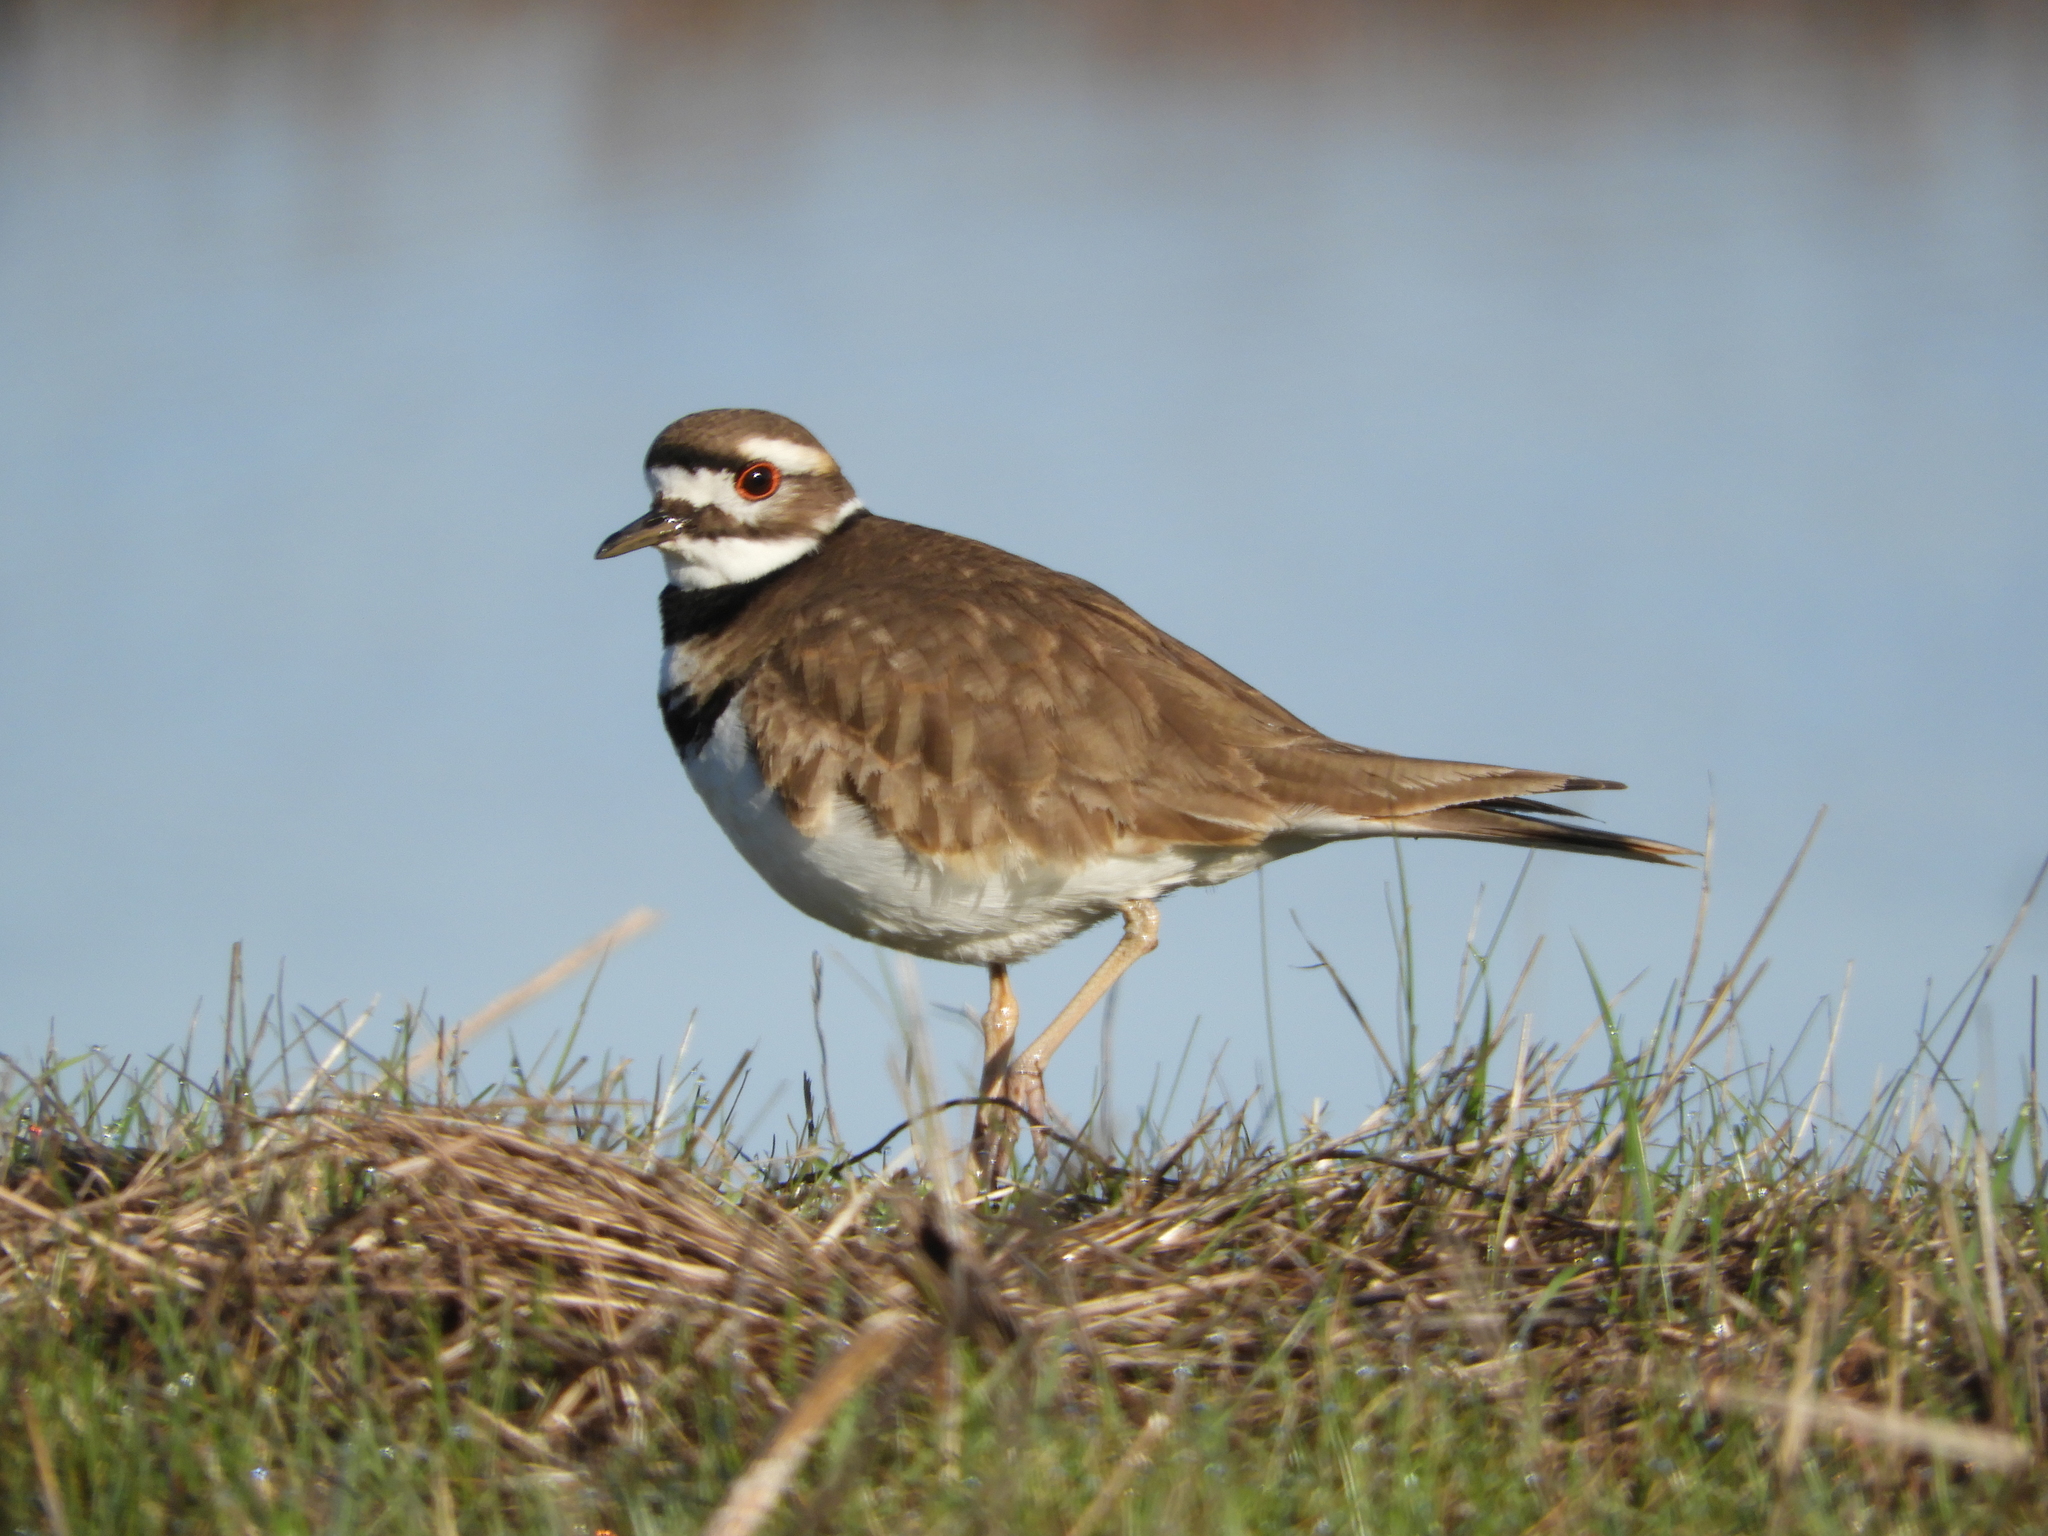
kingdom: Animalia
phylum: Chordata
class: Aves
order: Charadriiformes
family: Charadriidae
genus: Charadrius
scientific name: Charadrius vociferus
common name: Killdeer
